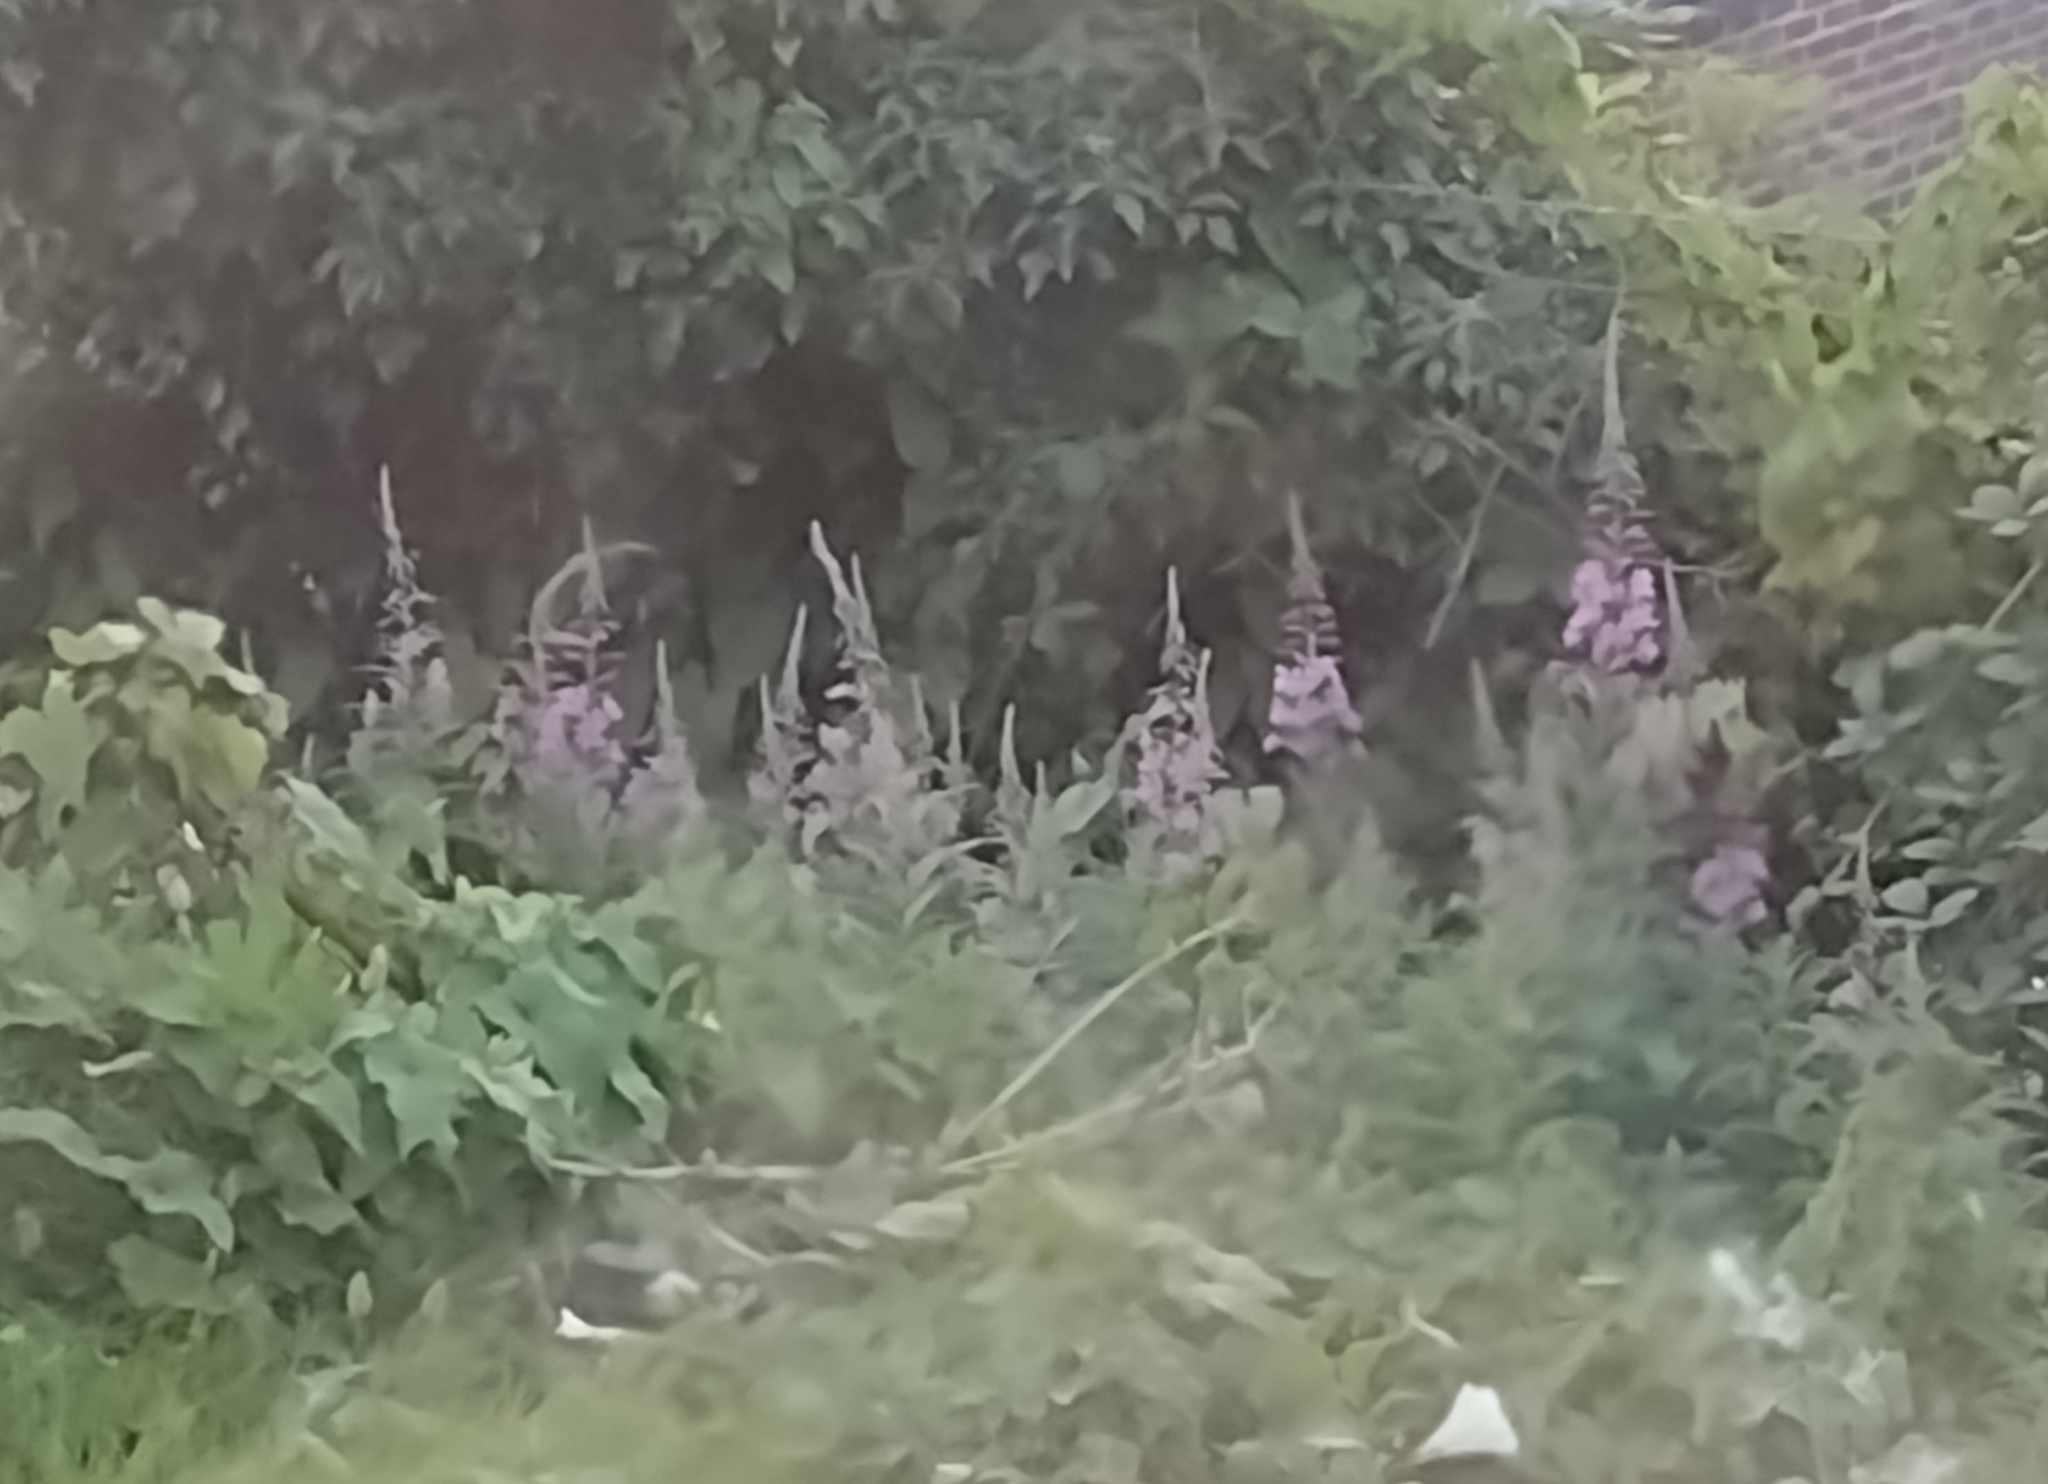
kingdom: Plantae
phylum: Tracheophyta
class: Magnoliopsida
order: Myrtales
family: Onagraceae
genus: Chamaenerion
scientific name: Chamaenerion angustifolium
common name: Fireweed
